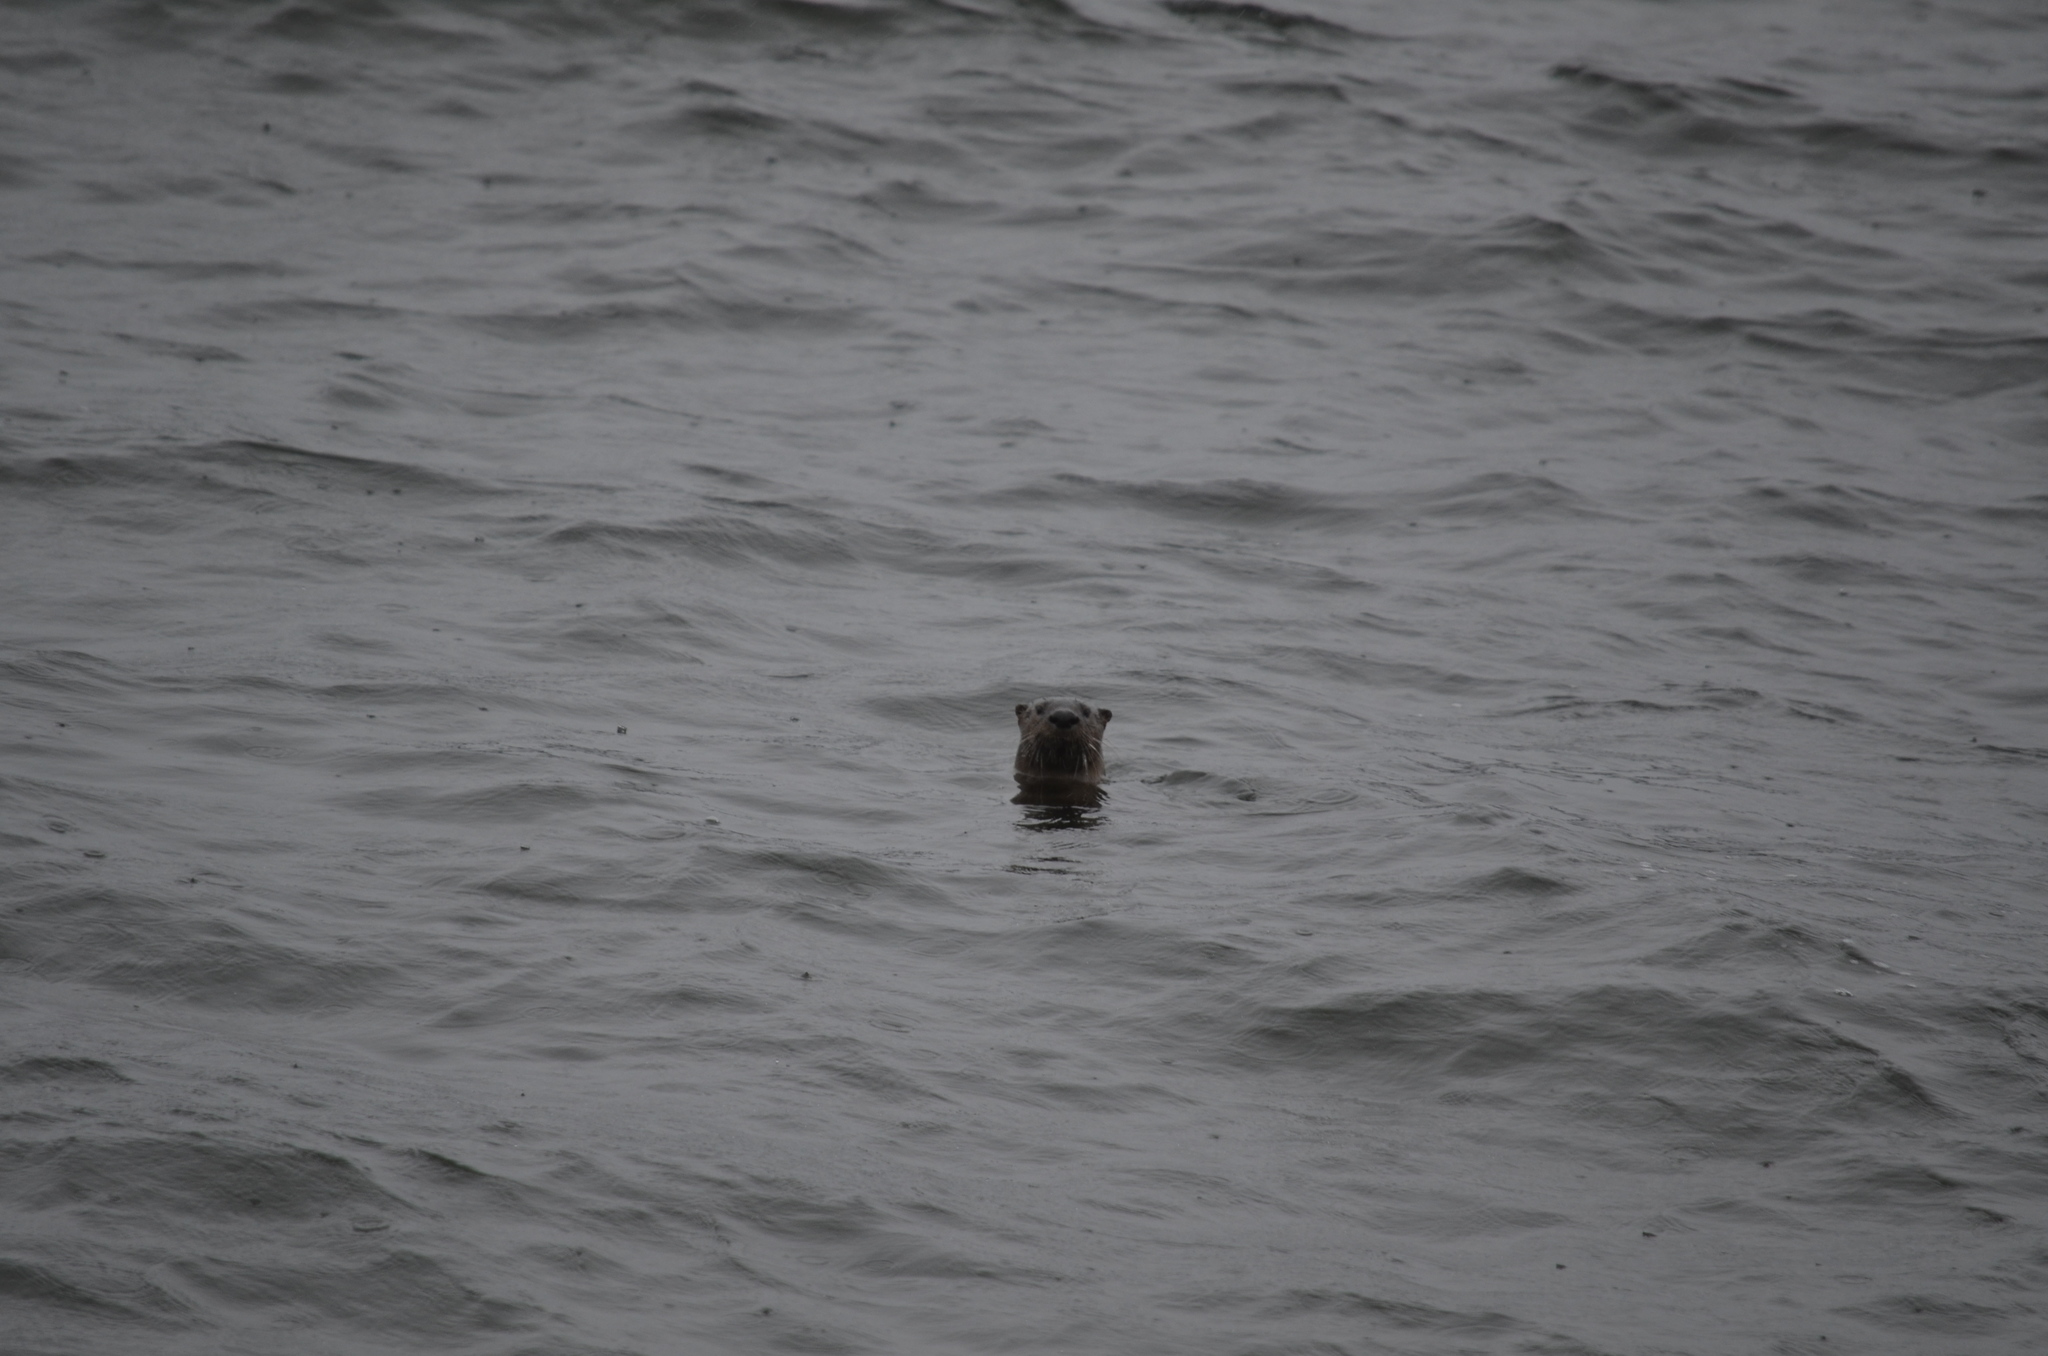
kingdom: Animalia
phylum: Chordata
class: Mammalia
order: Carnivora
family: Mustelidae
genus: Lontra
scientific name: Lontra canadensis
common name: North american river otter
